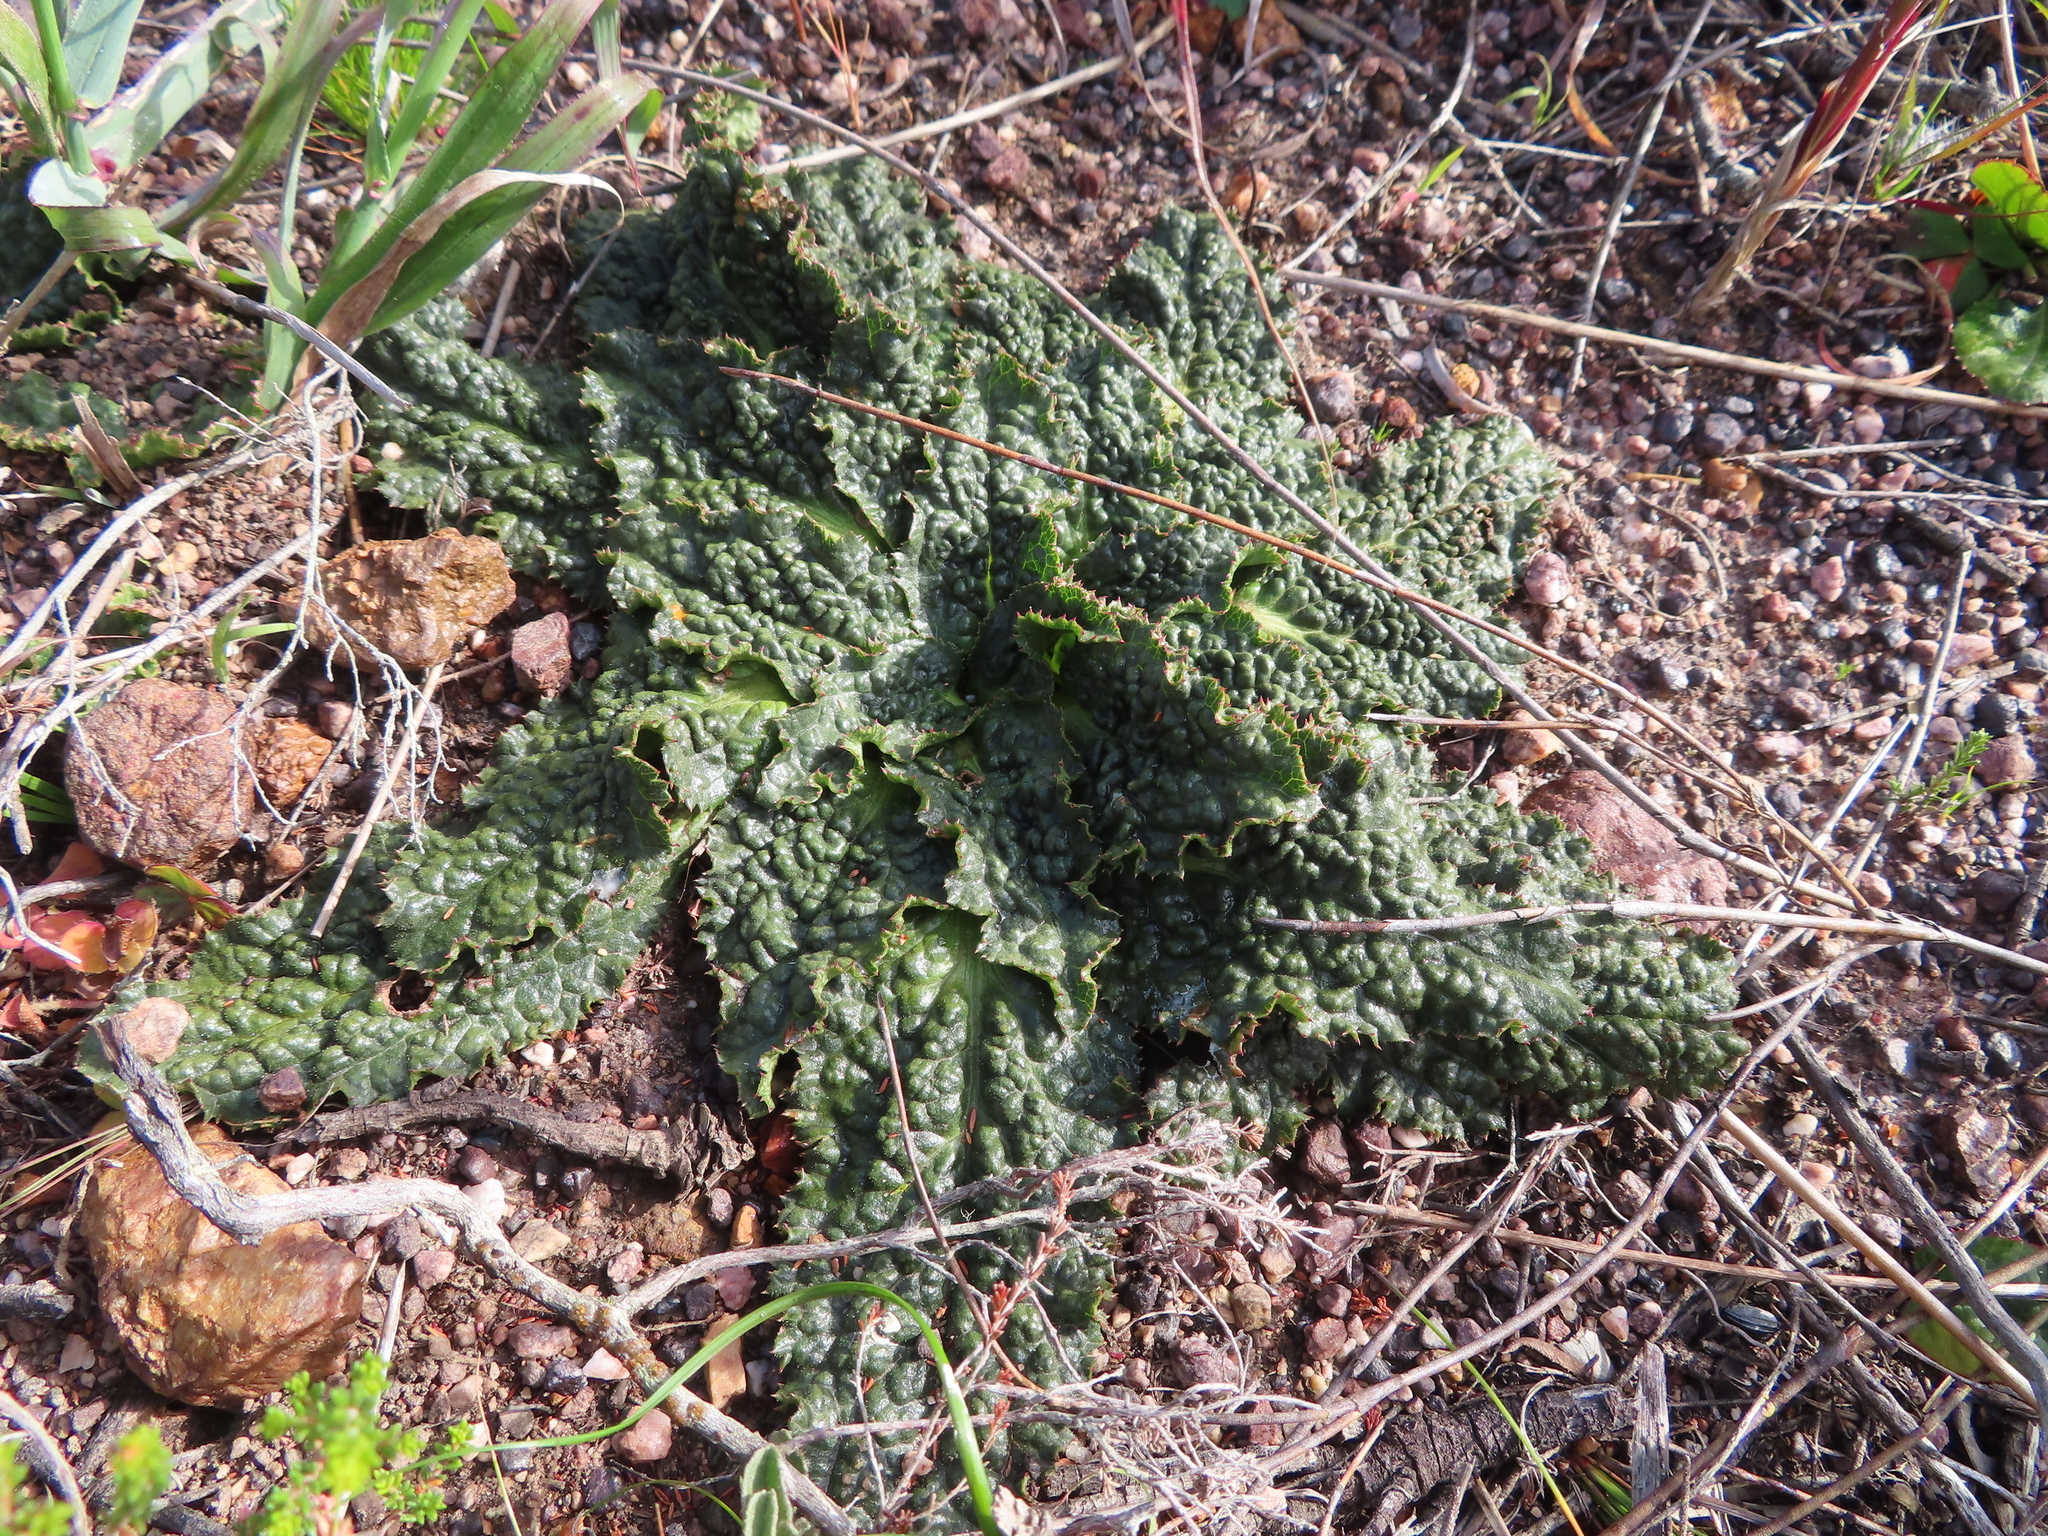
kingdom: Plantae
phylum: Tracheophyta
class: Magnoliopsida
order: Apiales
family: Apiaceae
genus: Lichtensteinia
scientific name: Lichtensteinia latifolia
